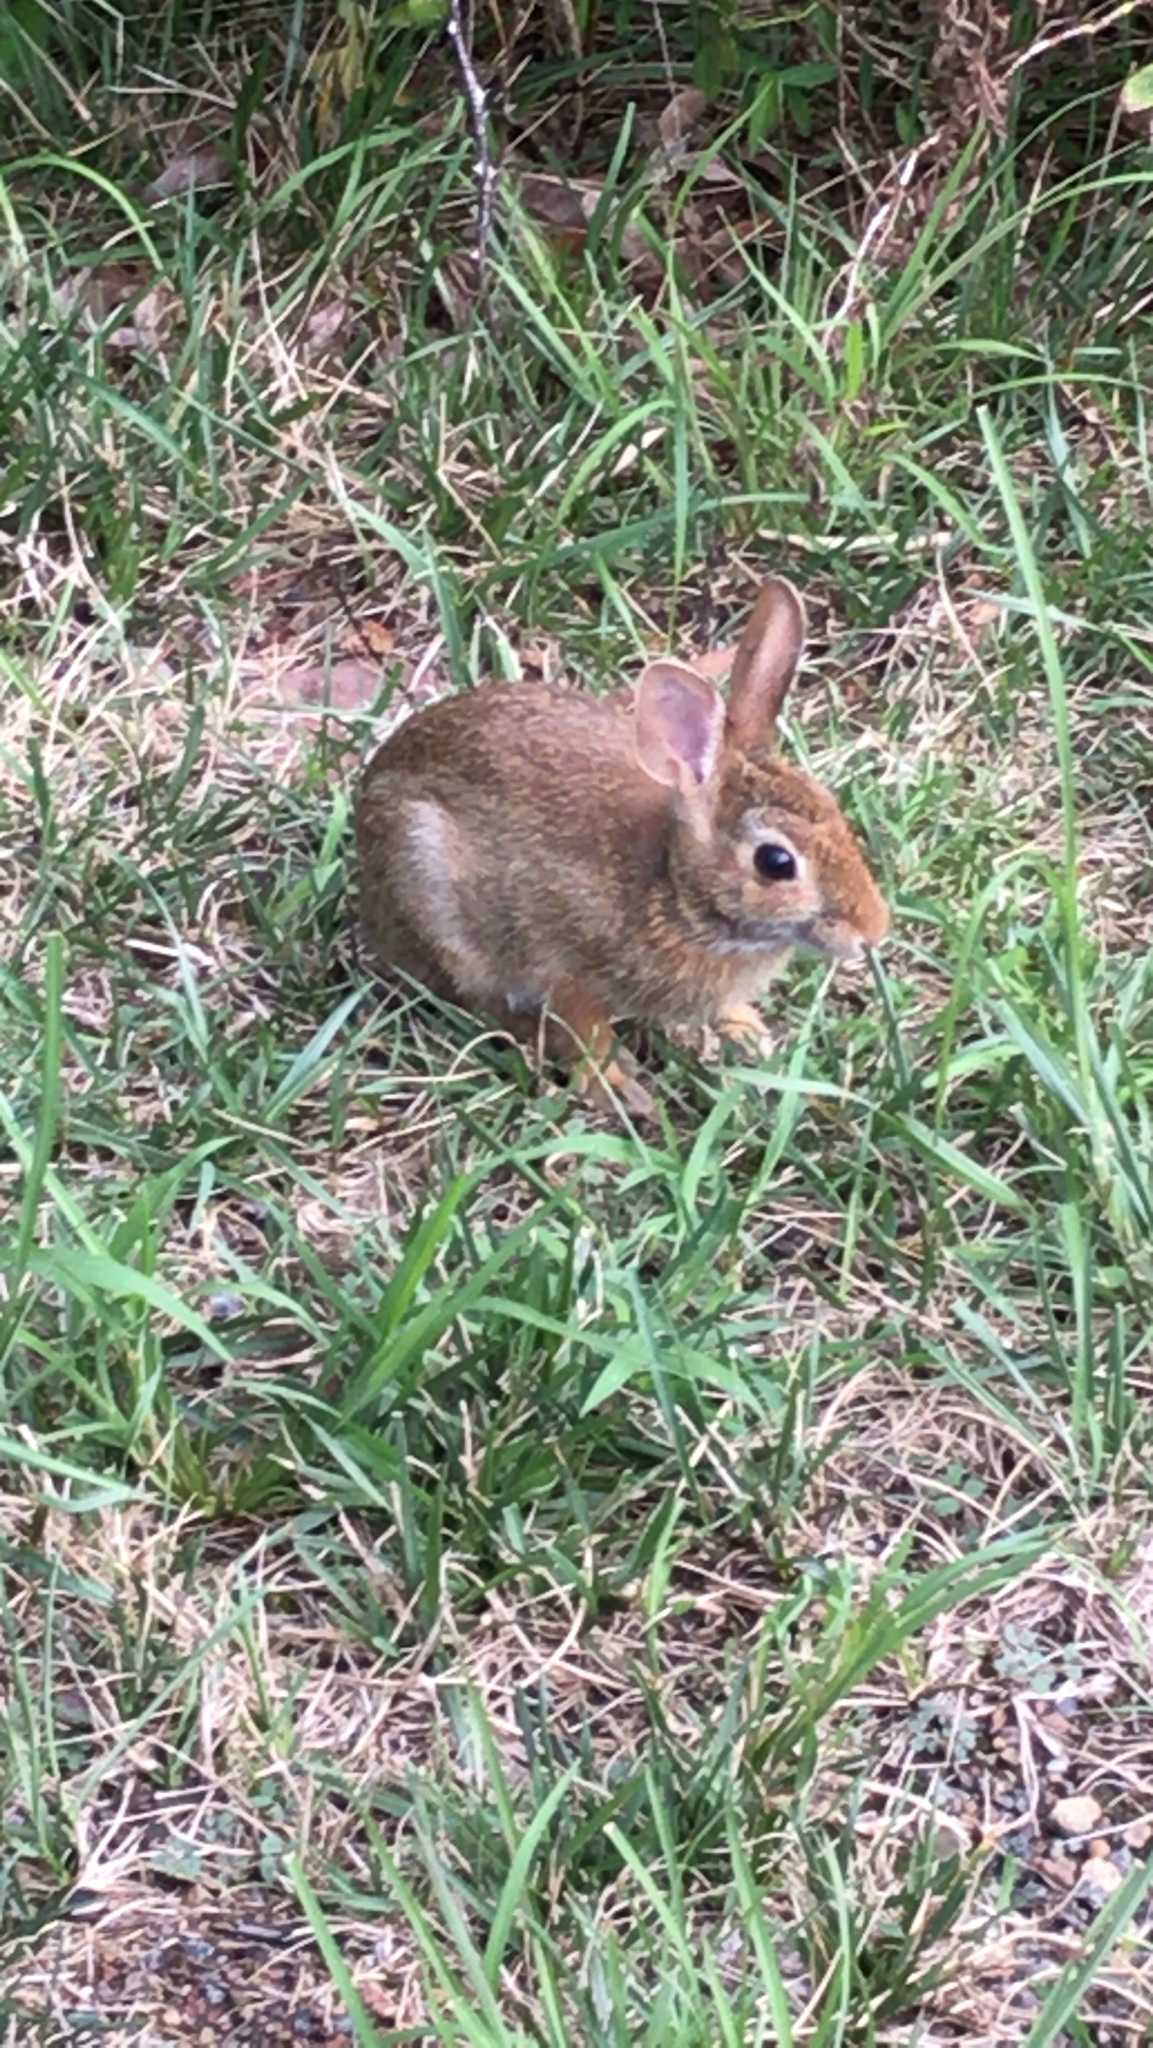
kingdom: Animalia
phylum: Chordata
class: Mammalia
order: Lagomorpha
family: Leporidae
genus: Sylvilagus
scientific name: Sylvilagus floridanus
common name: Eastern cottontail
